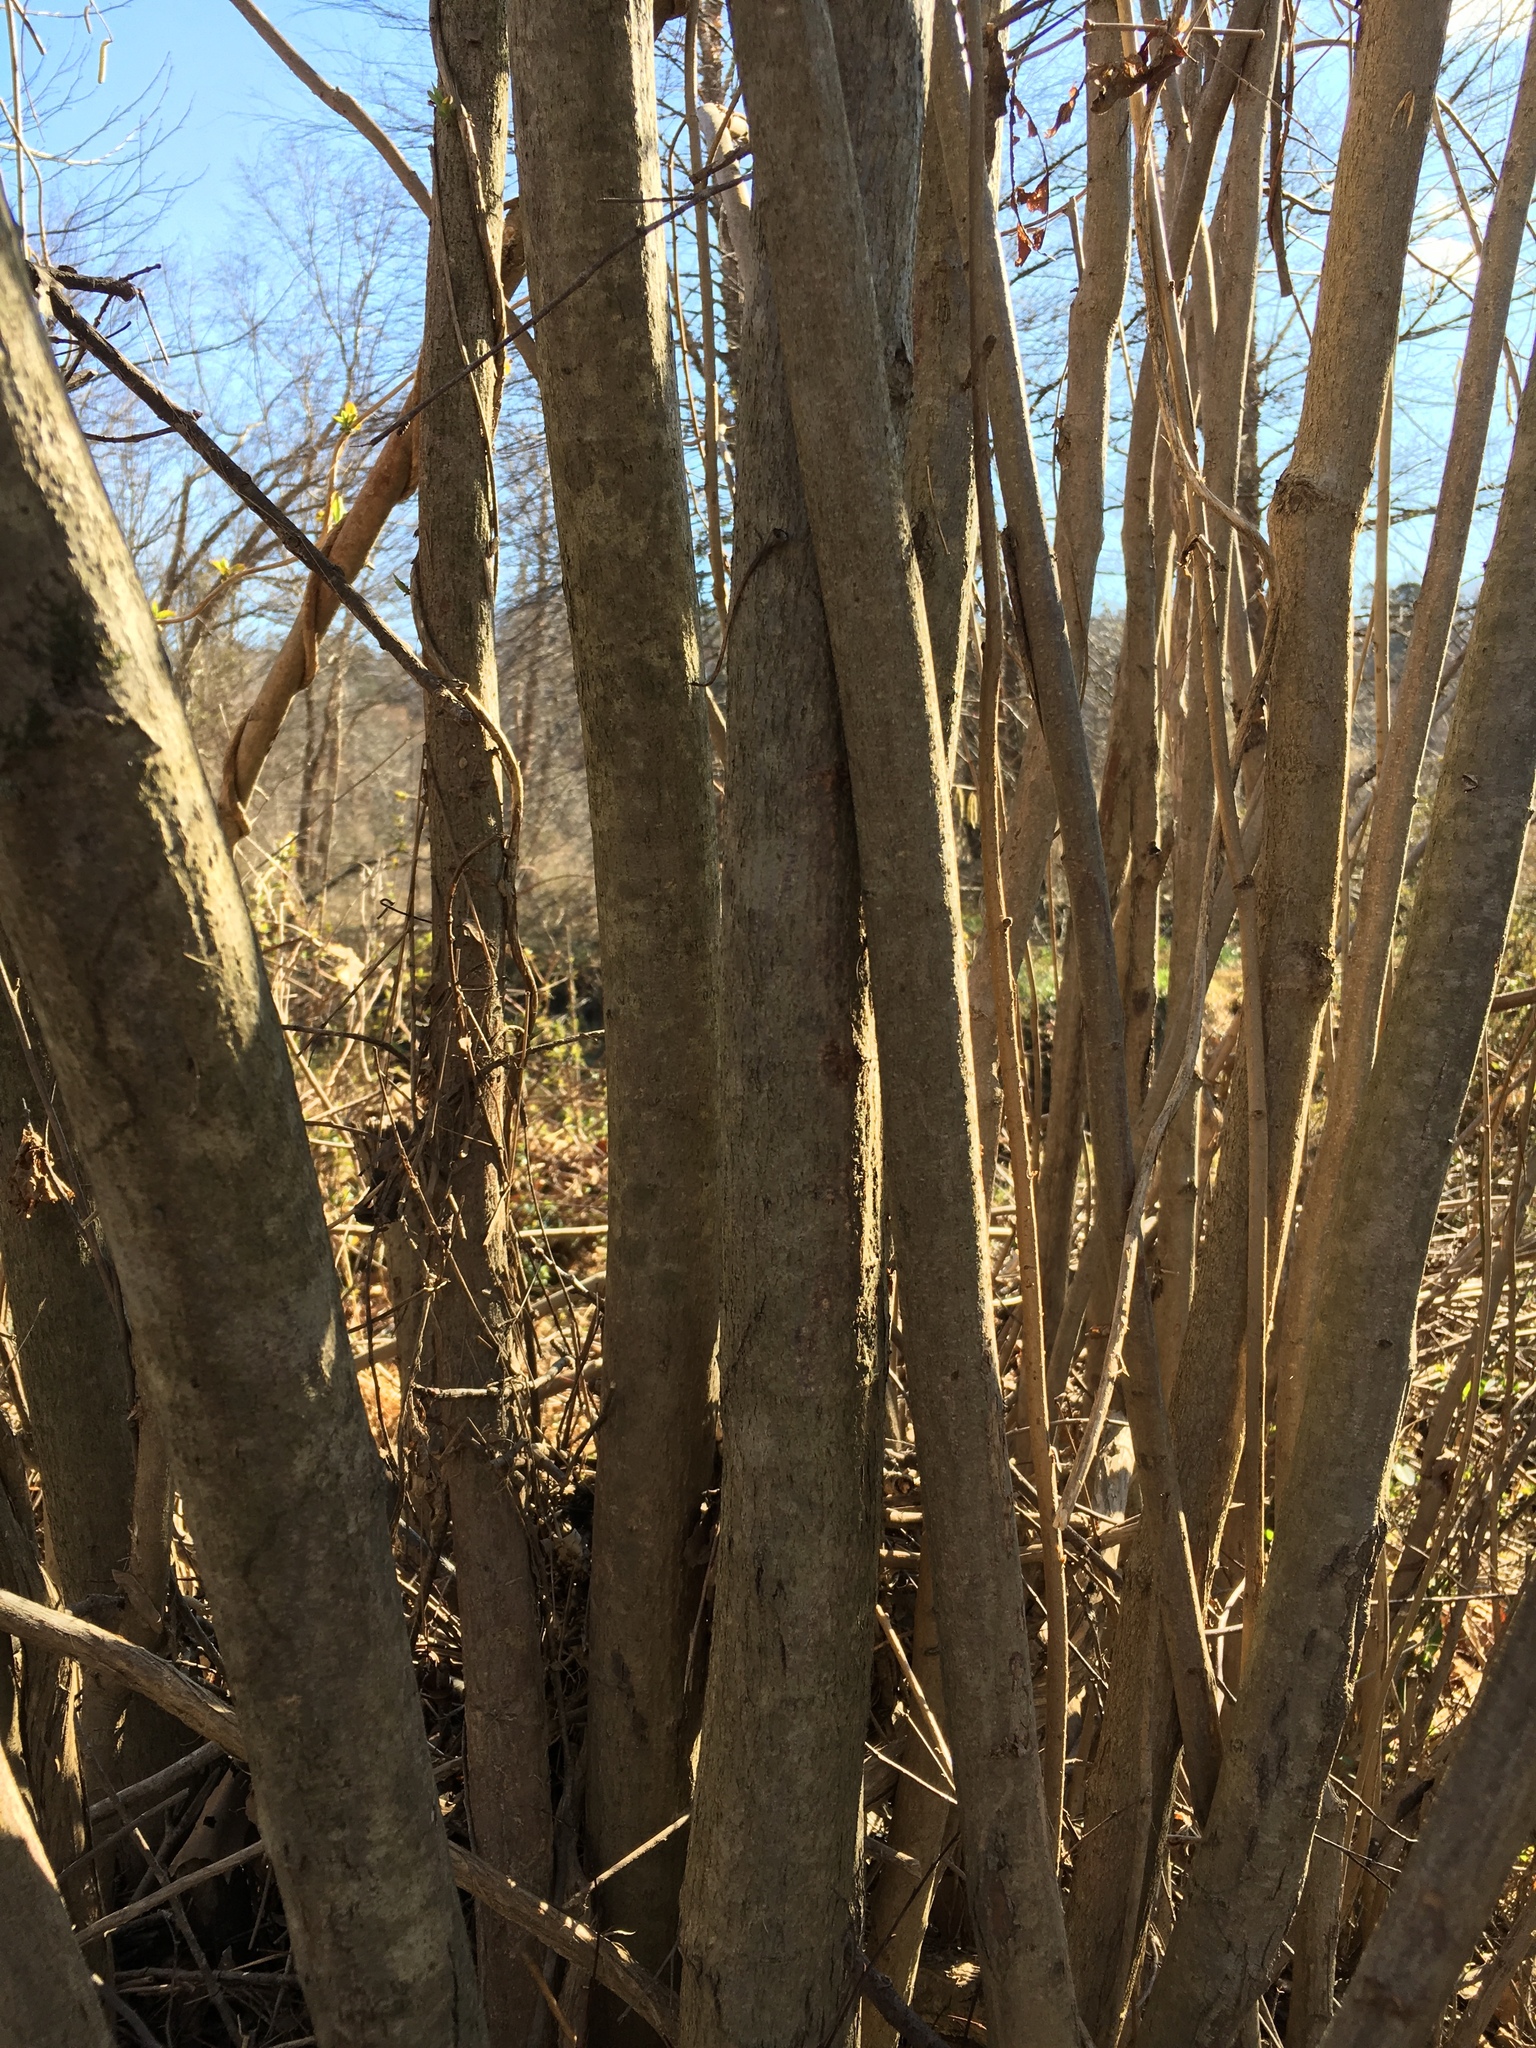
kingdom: Plantae
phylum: Tracheophyta
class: Magnoliopsida
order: Fagales
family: Betulaceae
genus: Corylus
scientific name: Corylus americana
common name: American hazel
